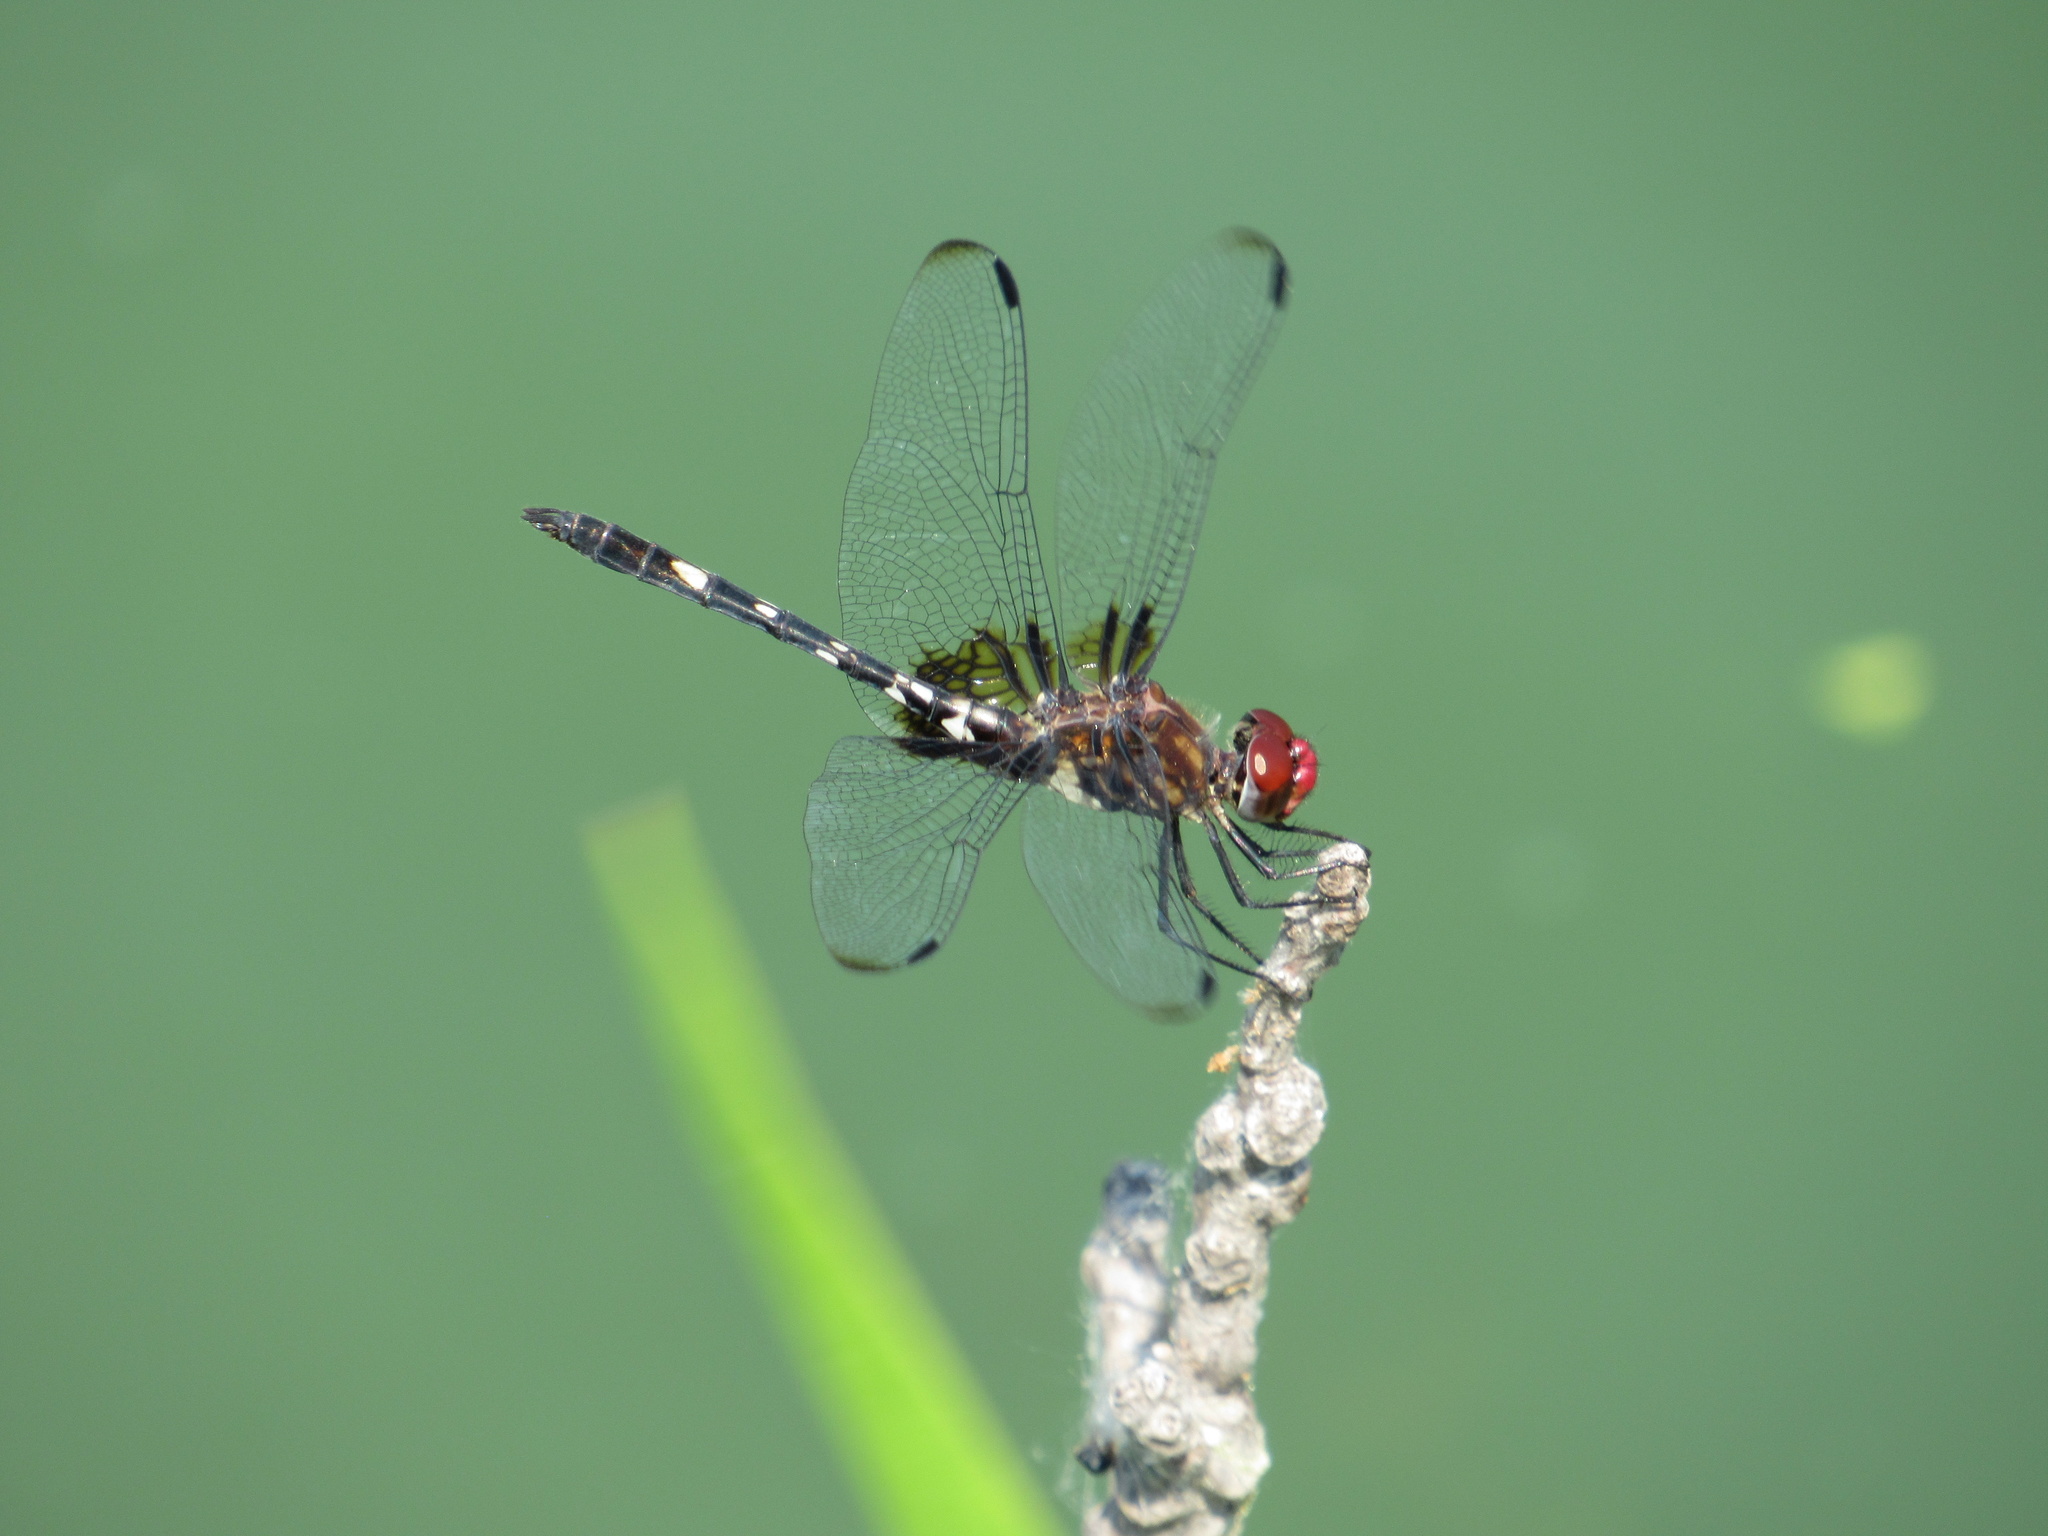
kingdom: Animalia
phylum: Arthropoda
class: Insecta
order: Odonata
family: Libellulidae
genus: Dythemis
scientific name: Dythemis fugax
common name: Checkered setwing
